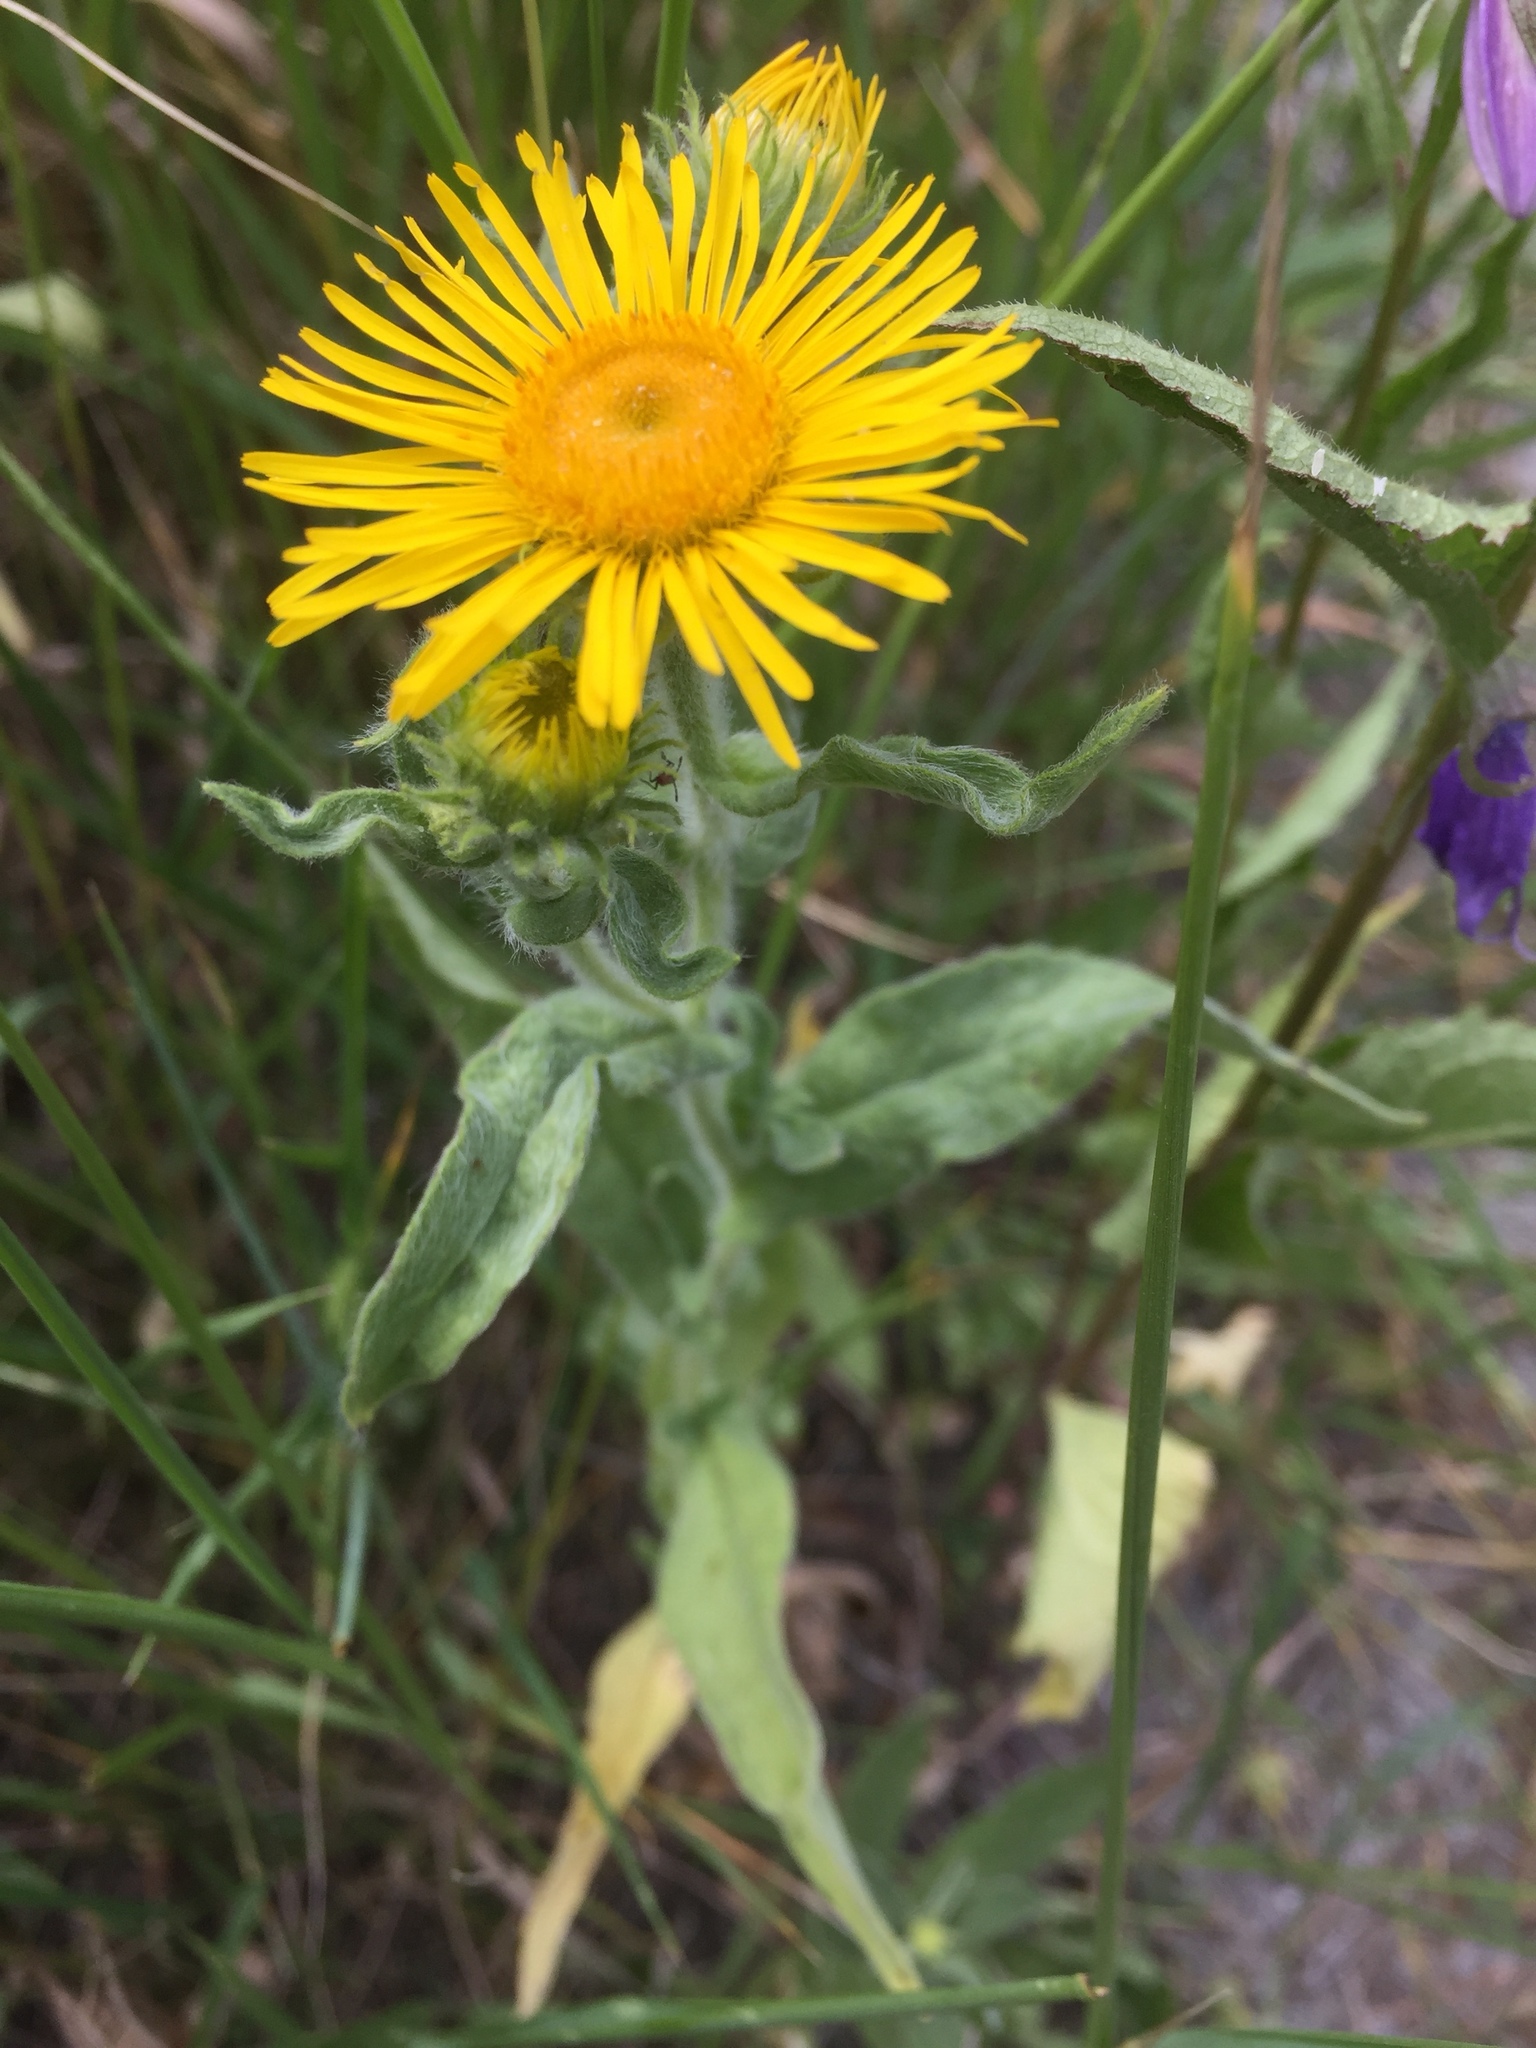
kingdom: Plantae
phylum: Tracheophyta
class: Magnoliopsida
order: Asterales
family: Asteraceae
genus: Pentanema
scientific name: Pentanema britannicum
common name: British elecampane
